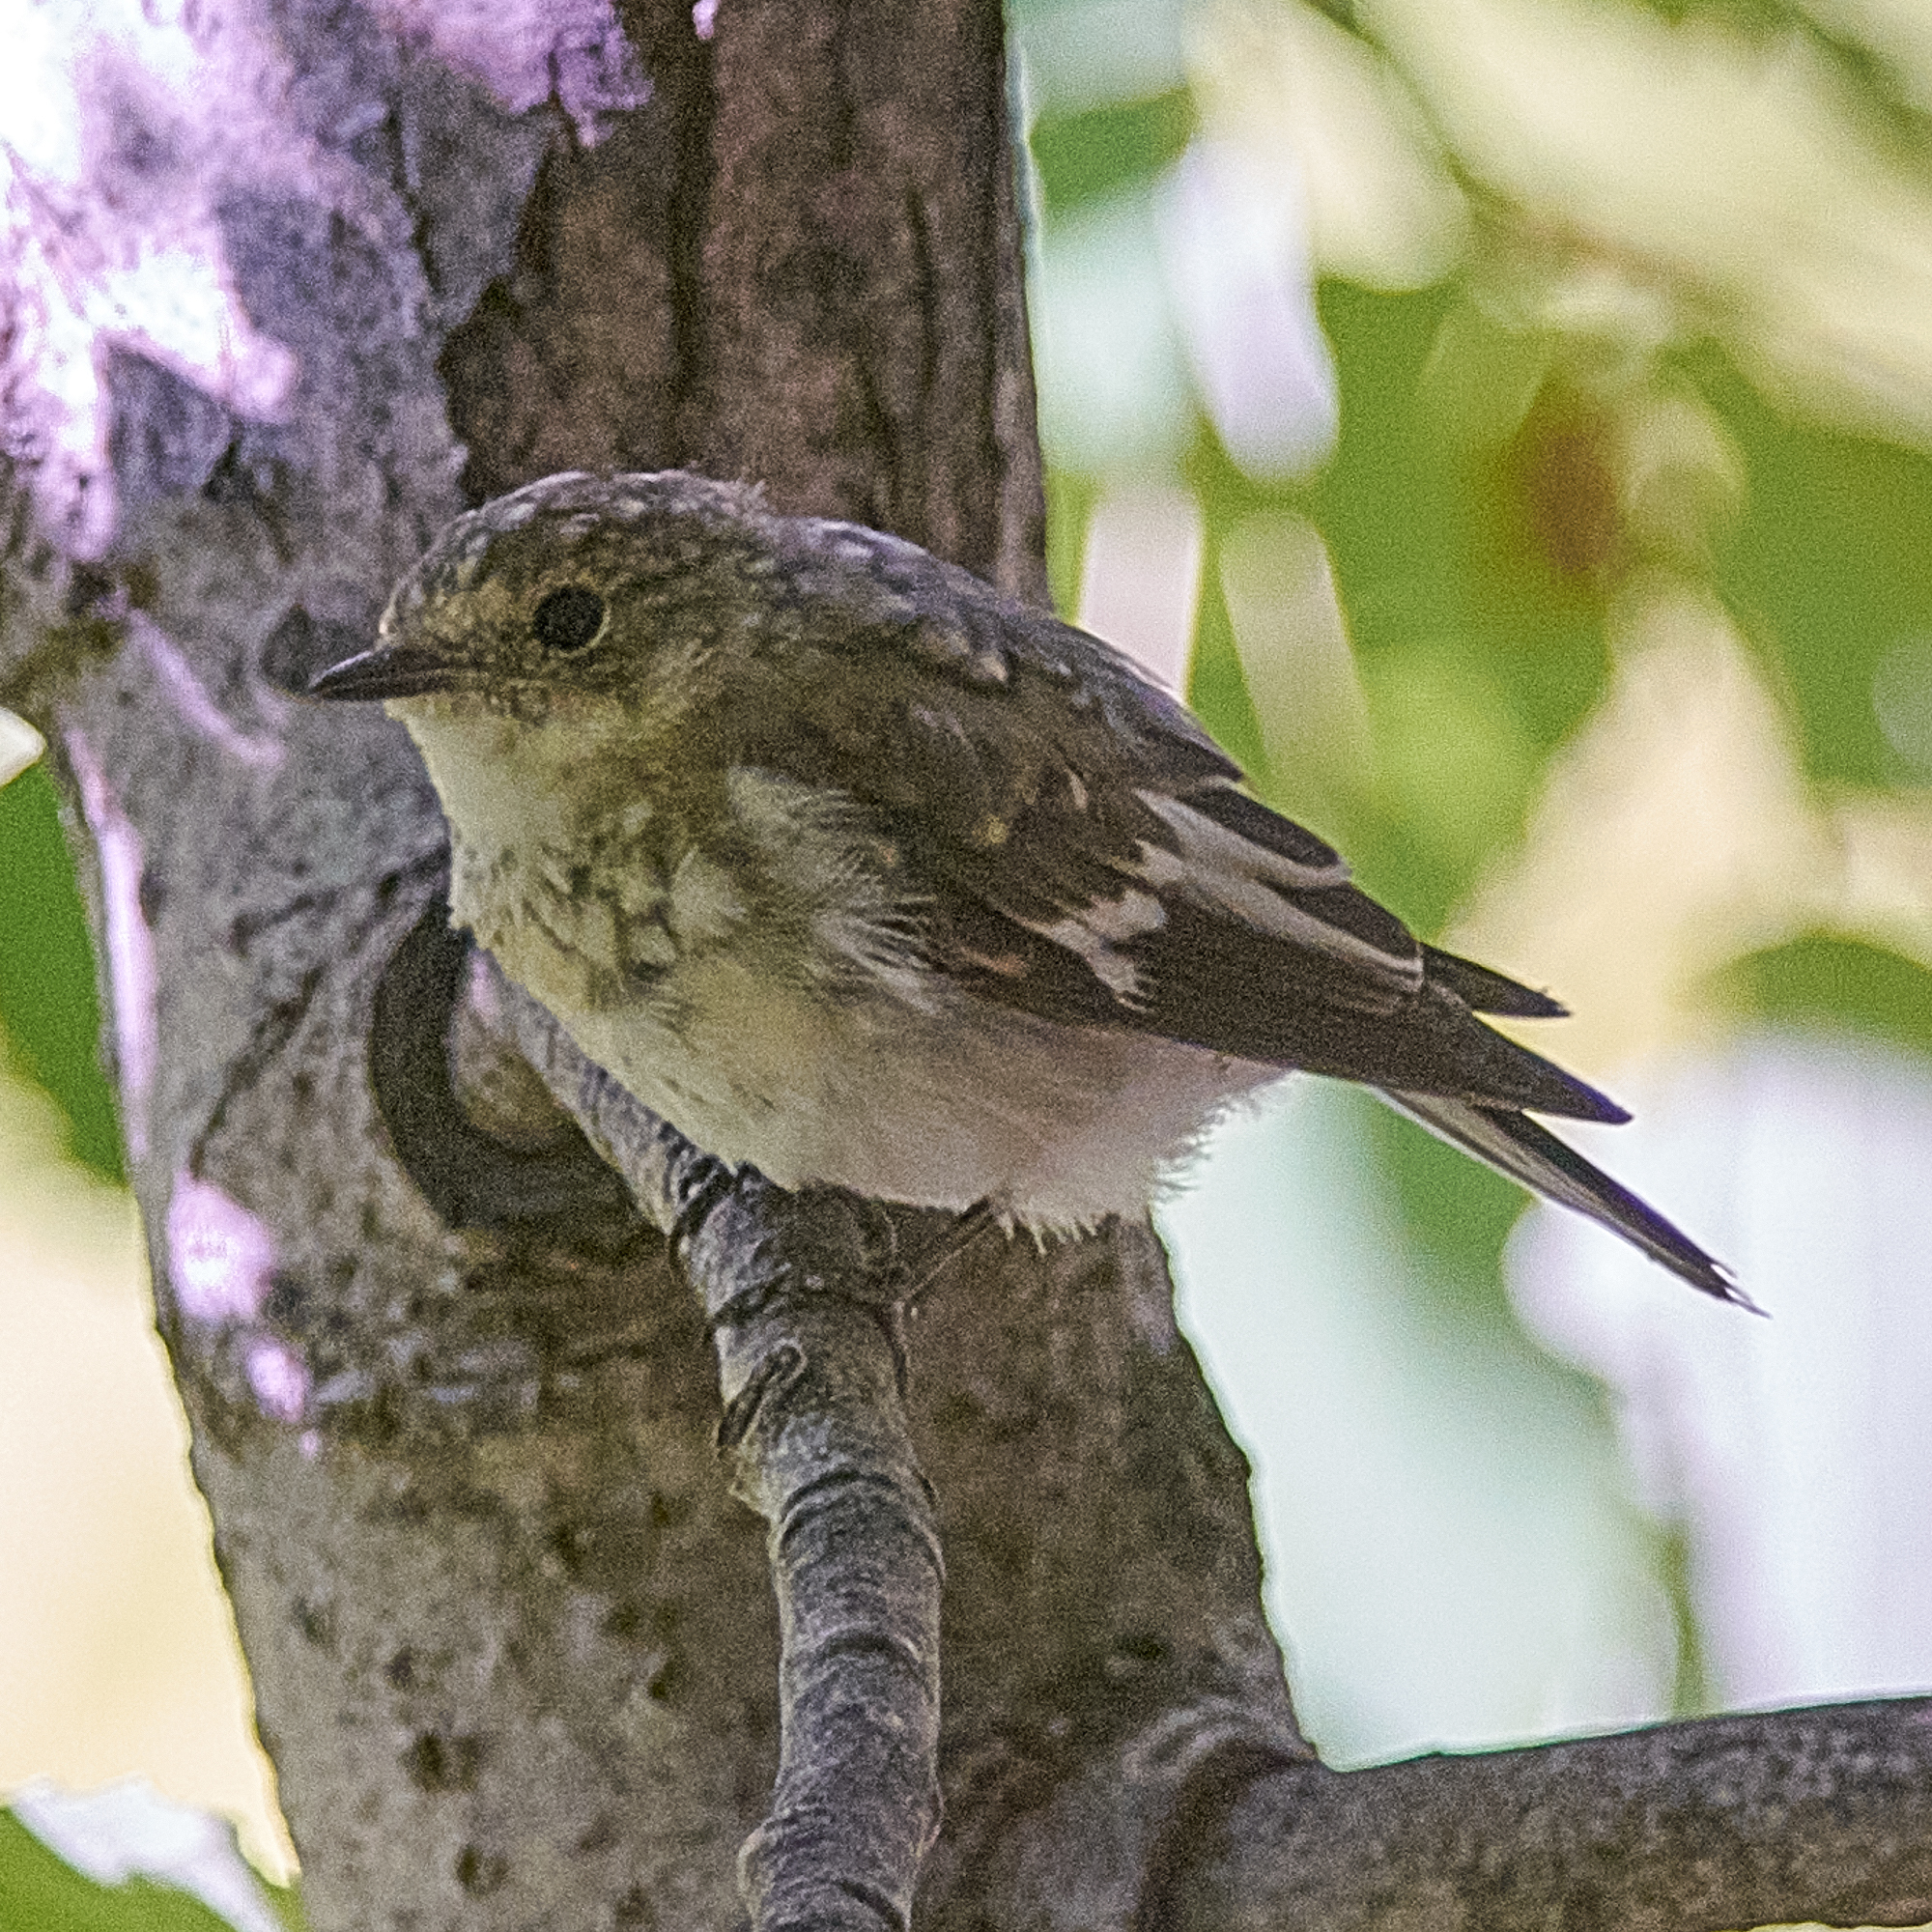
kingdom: Animalia
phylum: Chordata
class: Aves
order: Passeriformes
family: Muscicapidae
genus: Ficedula
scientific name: Ficedula albicollis
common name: Collared flycatcher
